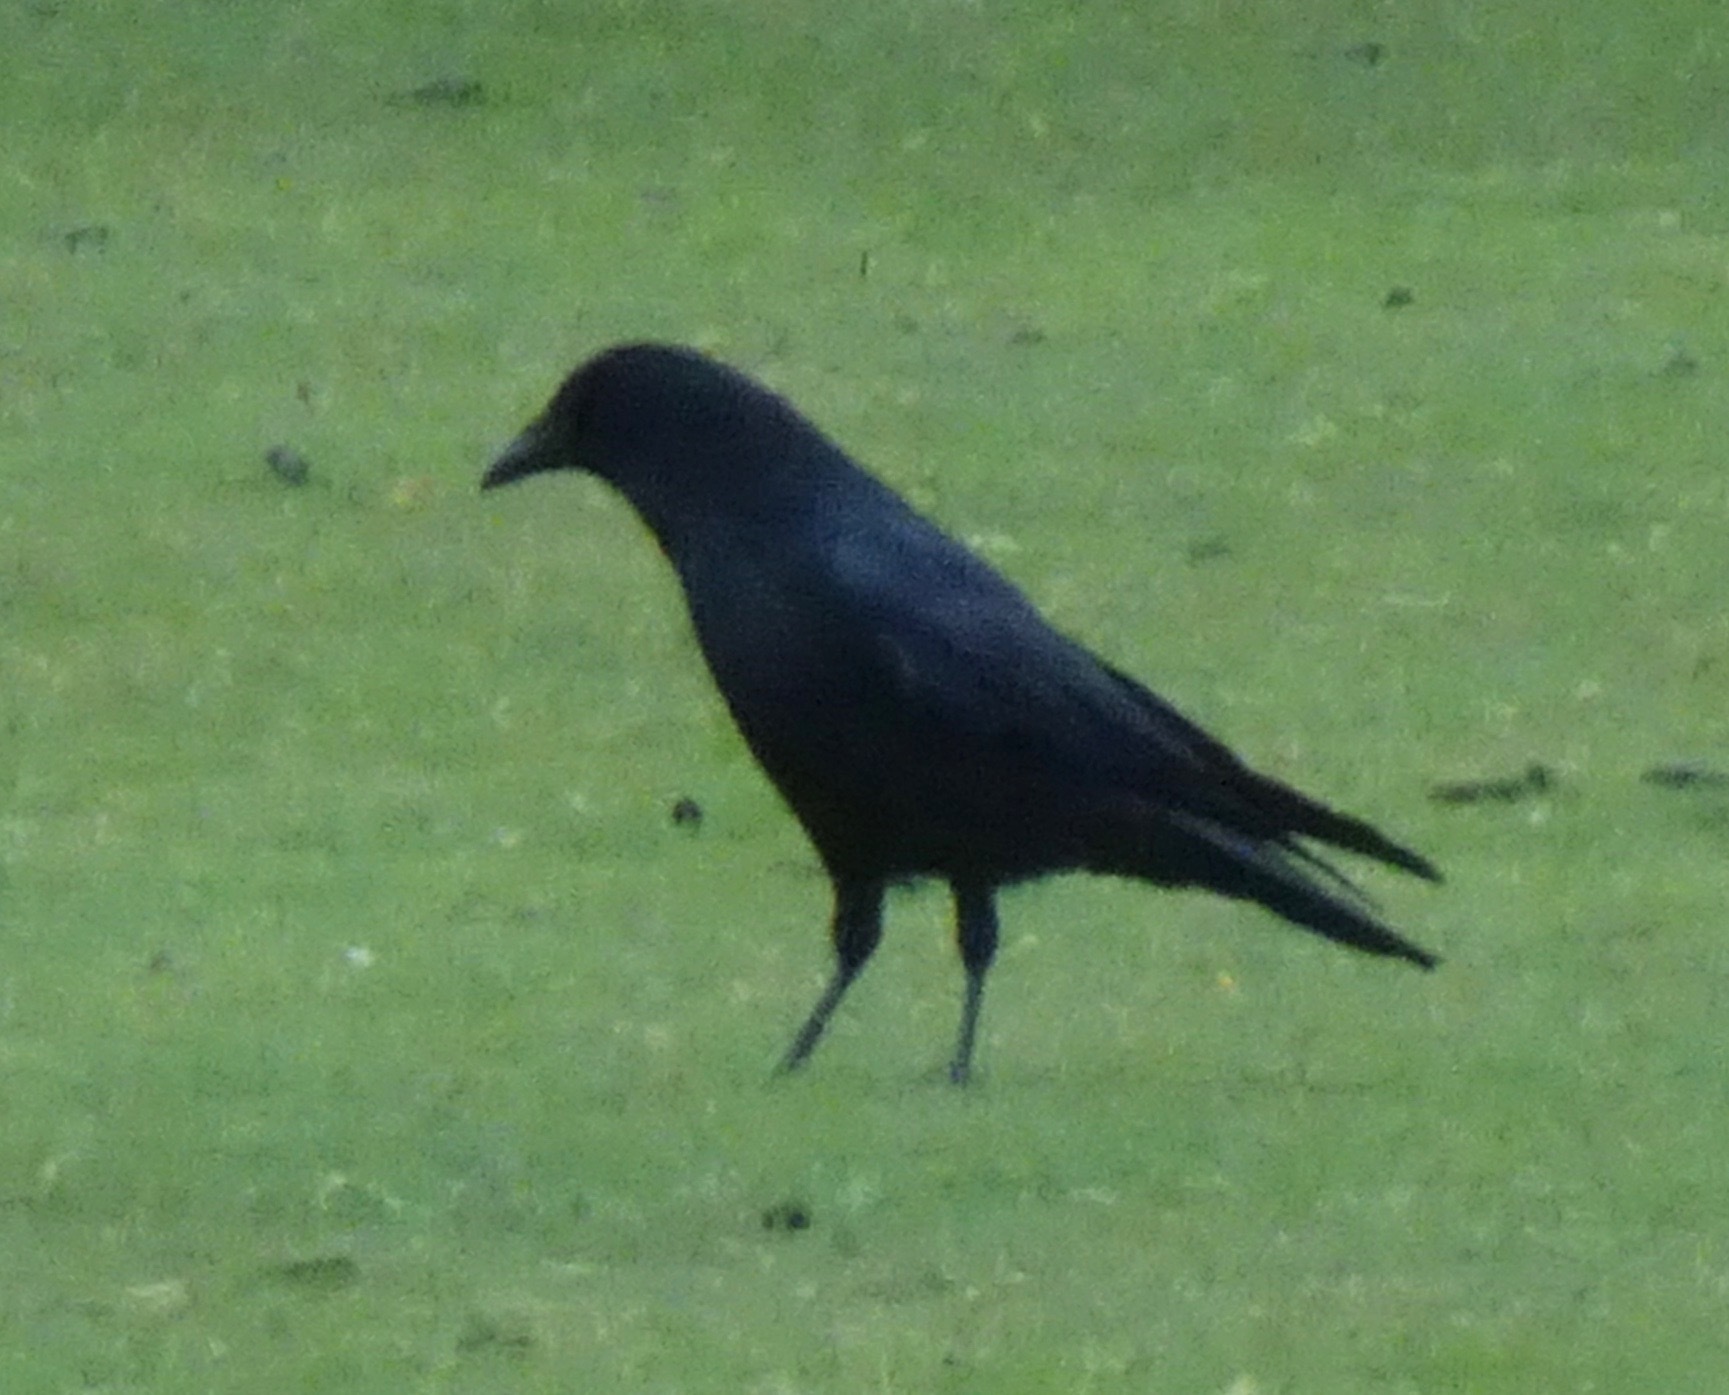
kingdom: Animalia
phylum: Chordata
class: Aves
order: Passeriformes
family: Corvidae
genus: Corvus
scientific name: Corvus corone
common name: Carrion crow
